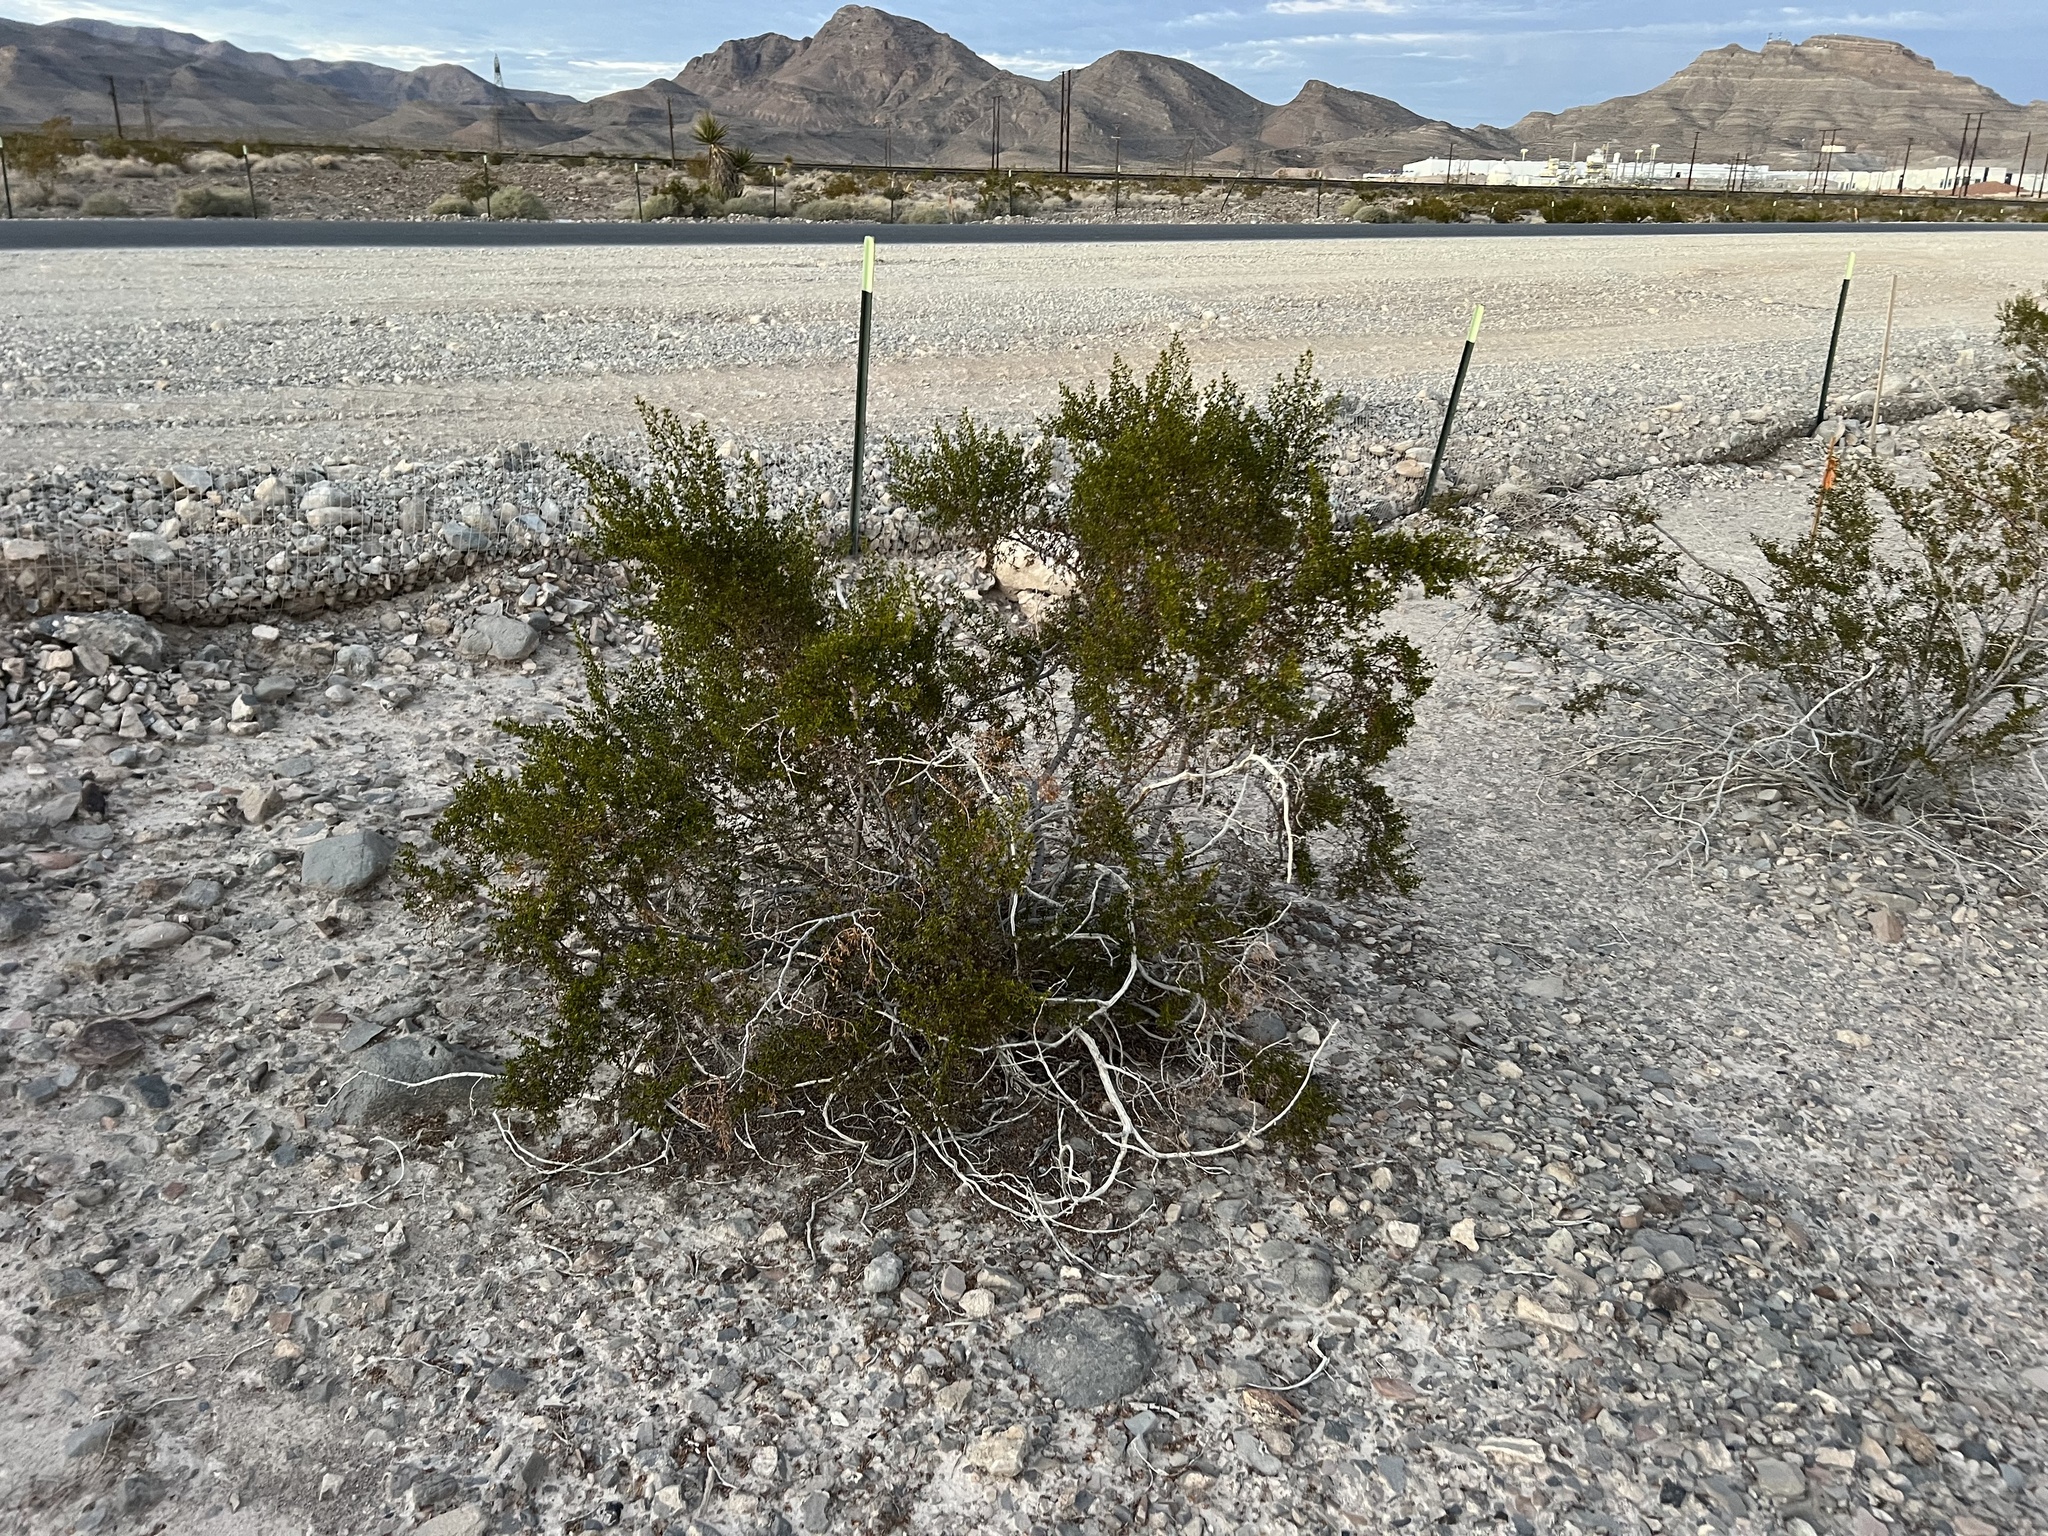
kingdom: Plantae
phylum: Tracheophyta
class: Magnoliopsida
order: Zygophyllales
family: Zygophyllaceae
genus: Larrea
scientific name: Larrea tridentata
